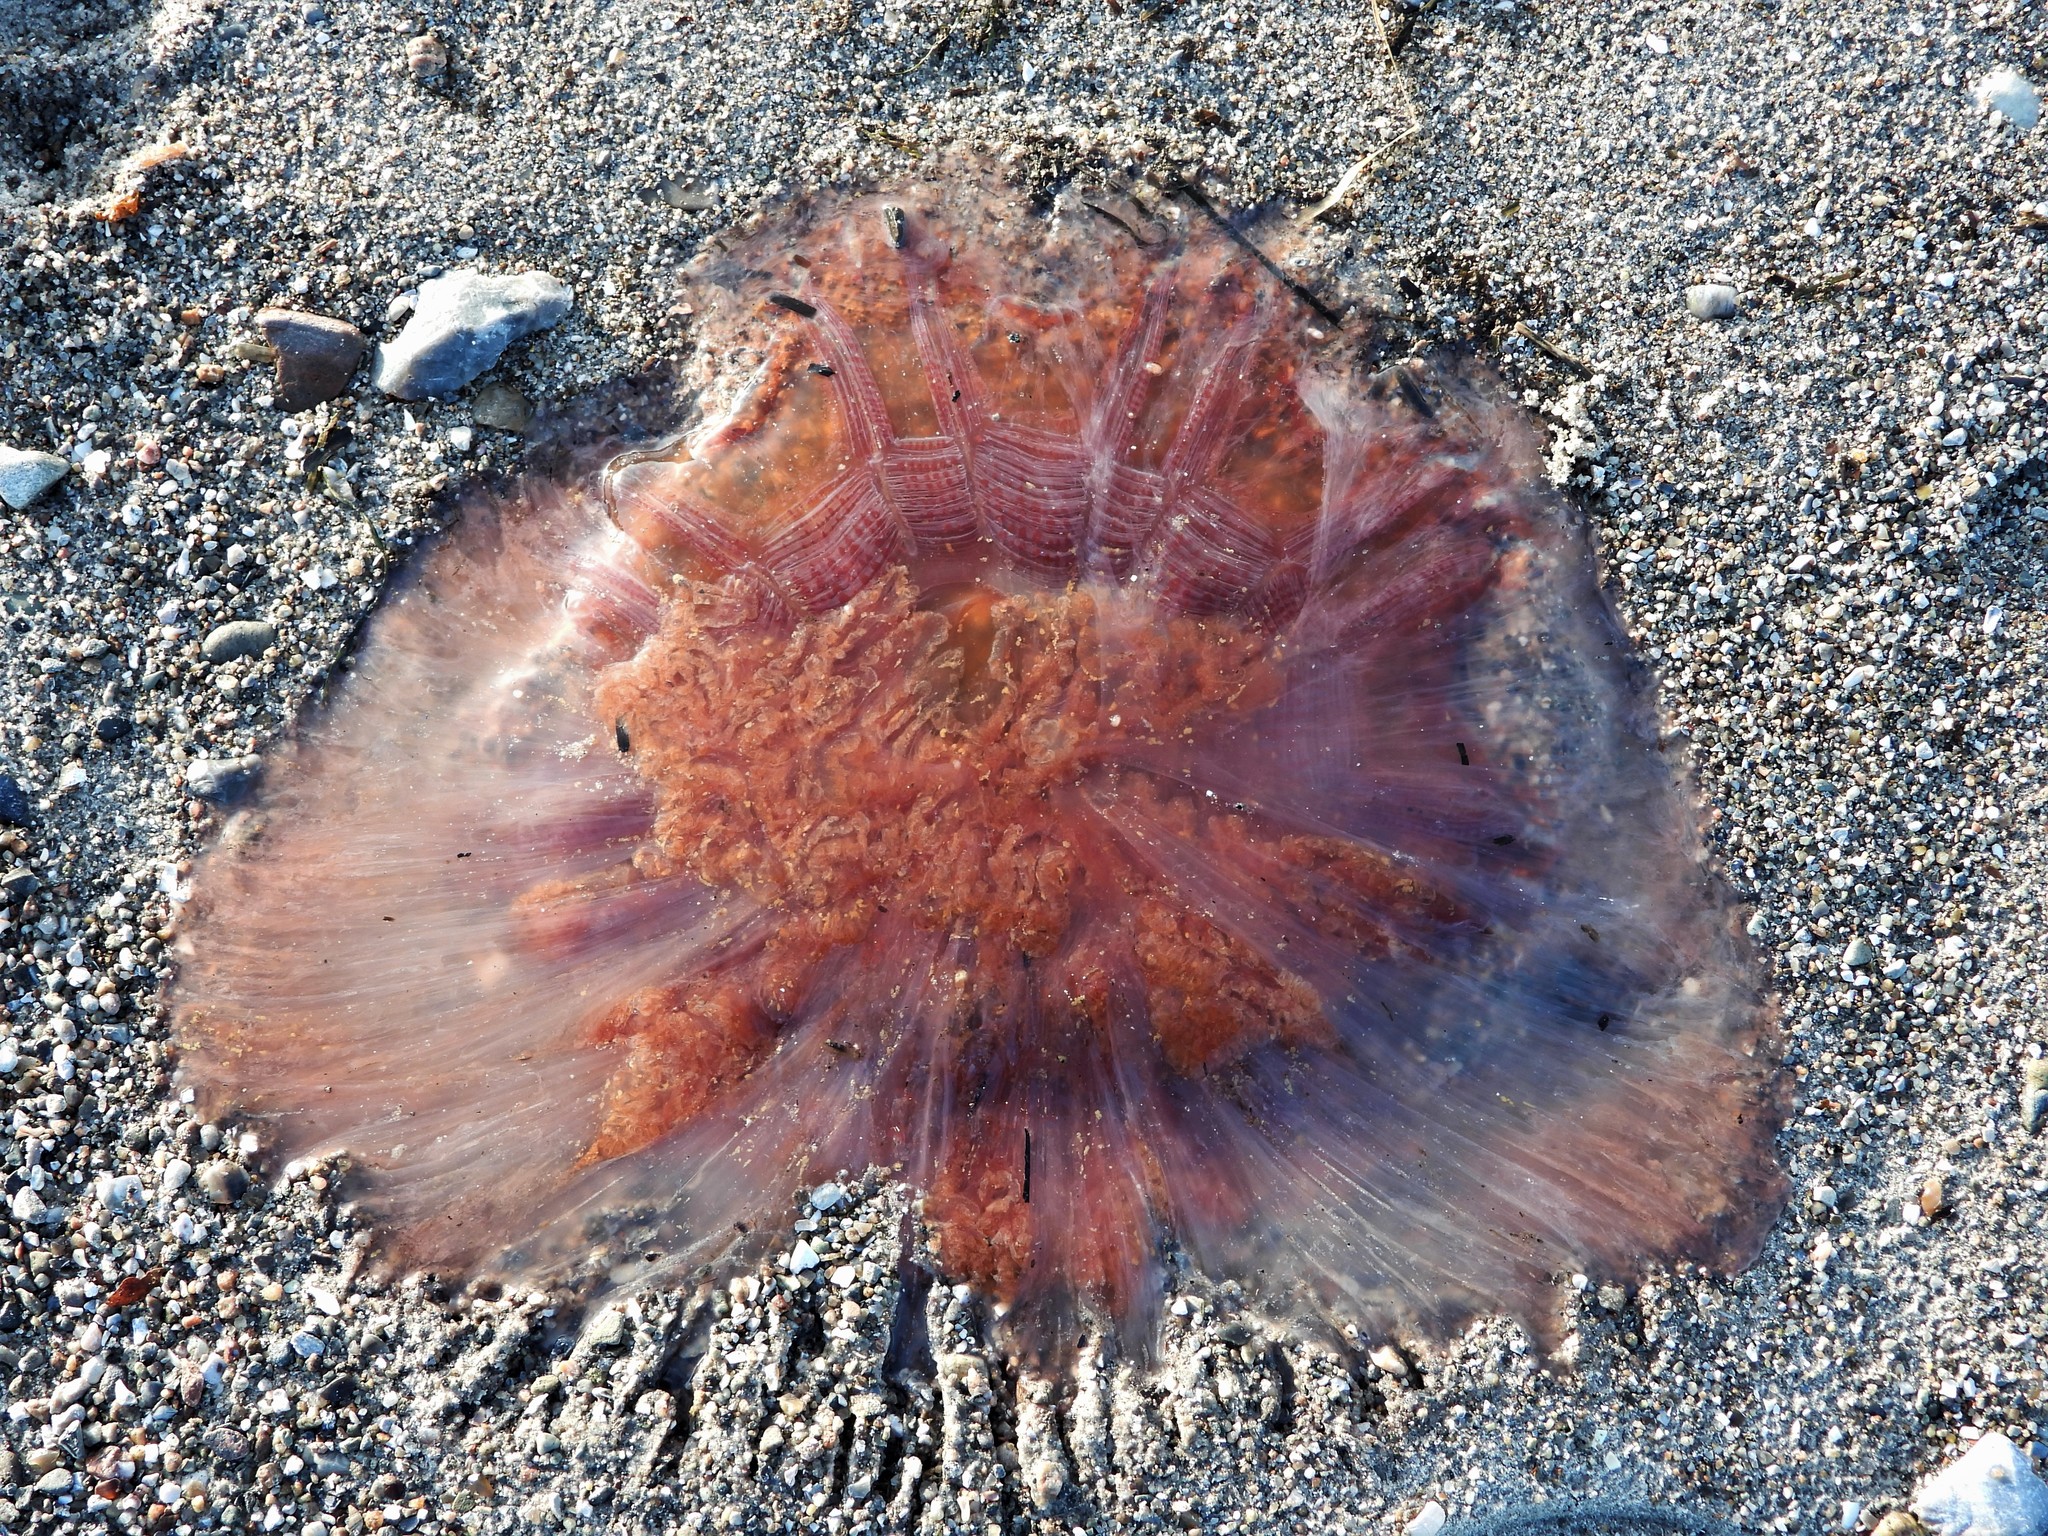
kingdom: Animalia
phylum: Cnidaria
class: Scyphozoa
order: Semaeostomeae
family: Cyaneidae
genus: Cyanea
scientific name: Cyanea capillata
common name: Lion's mane jellyfish
